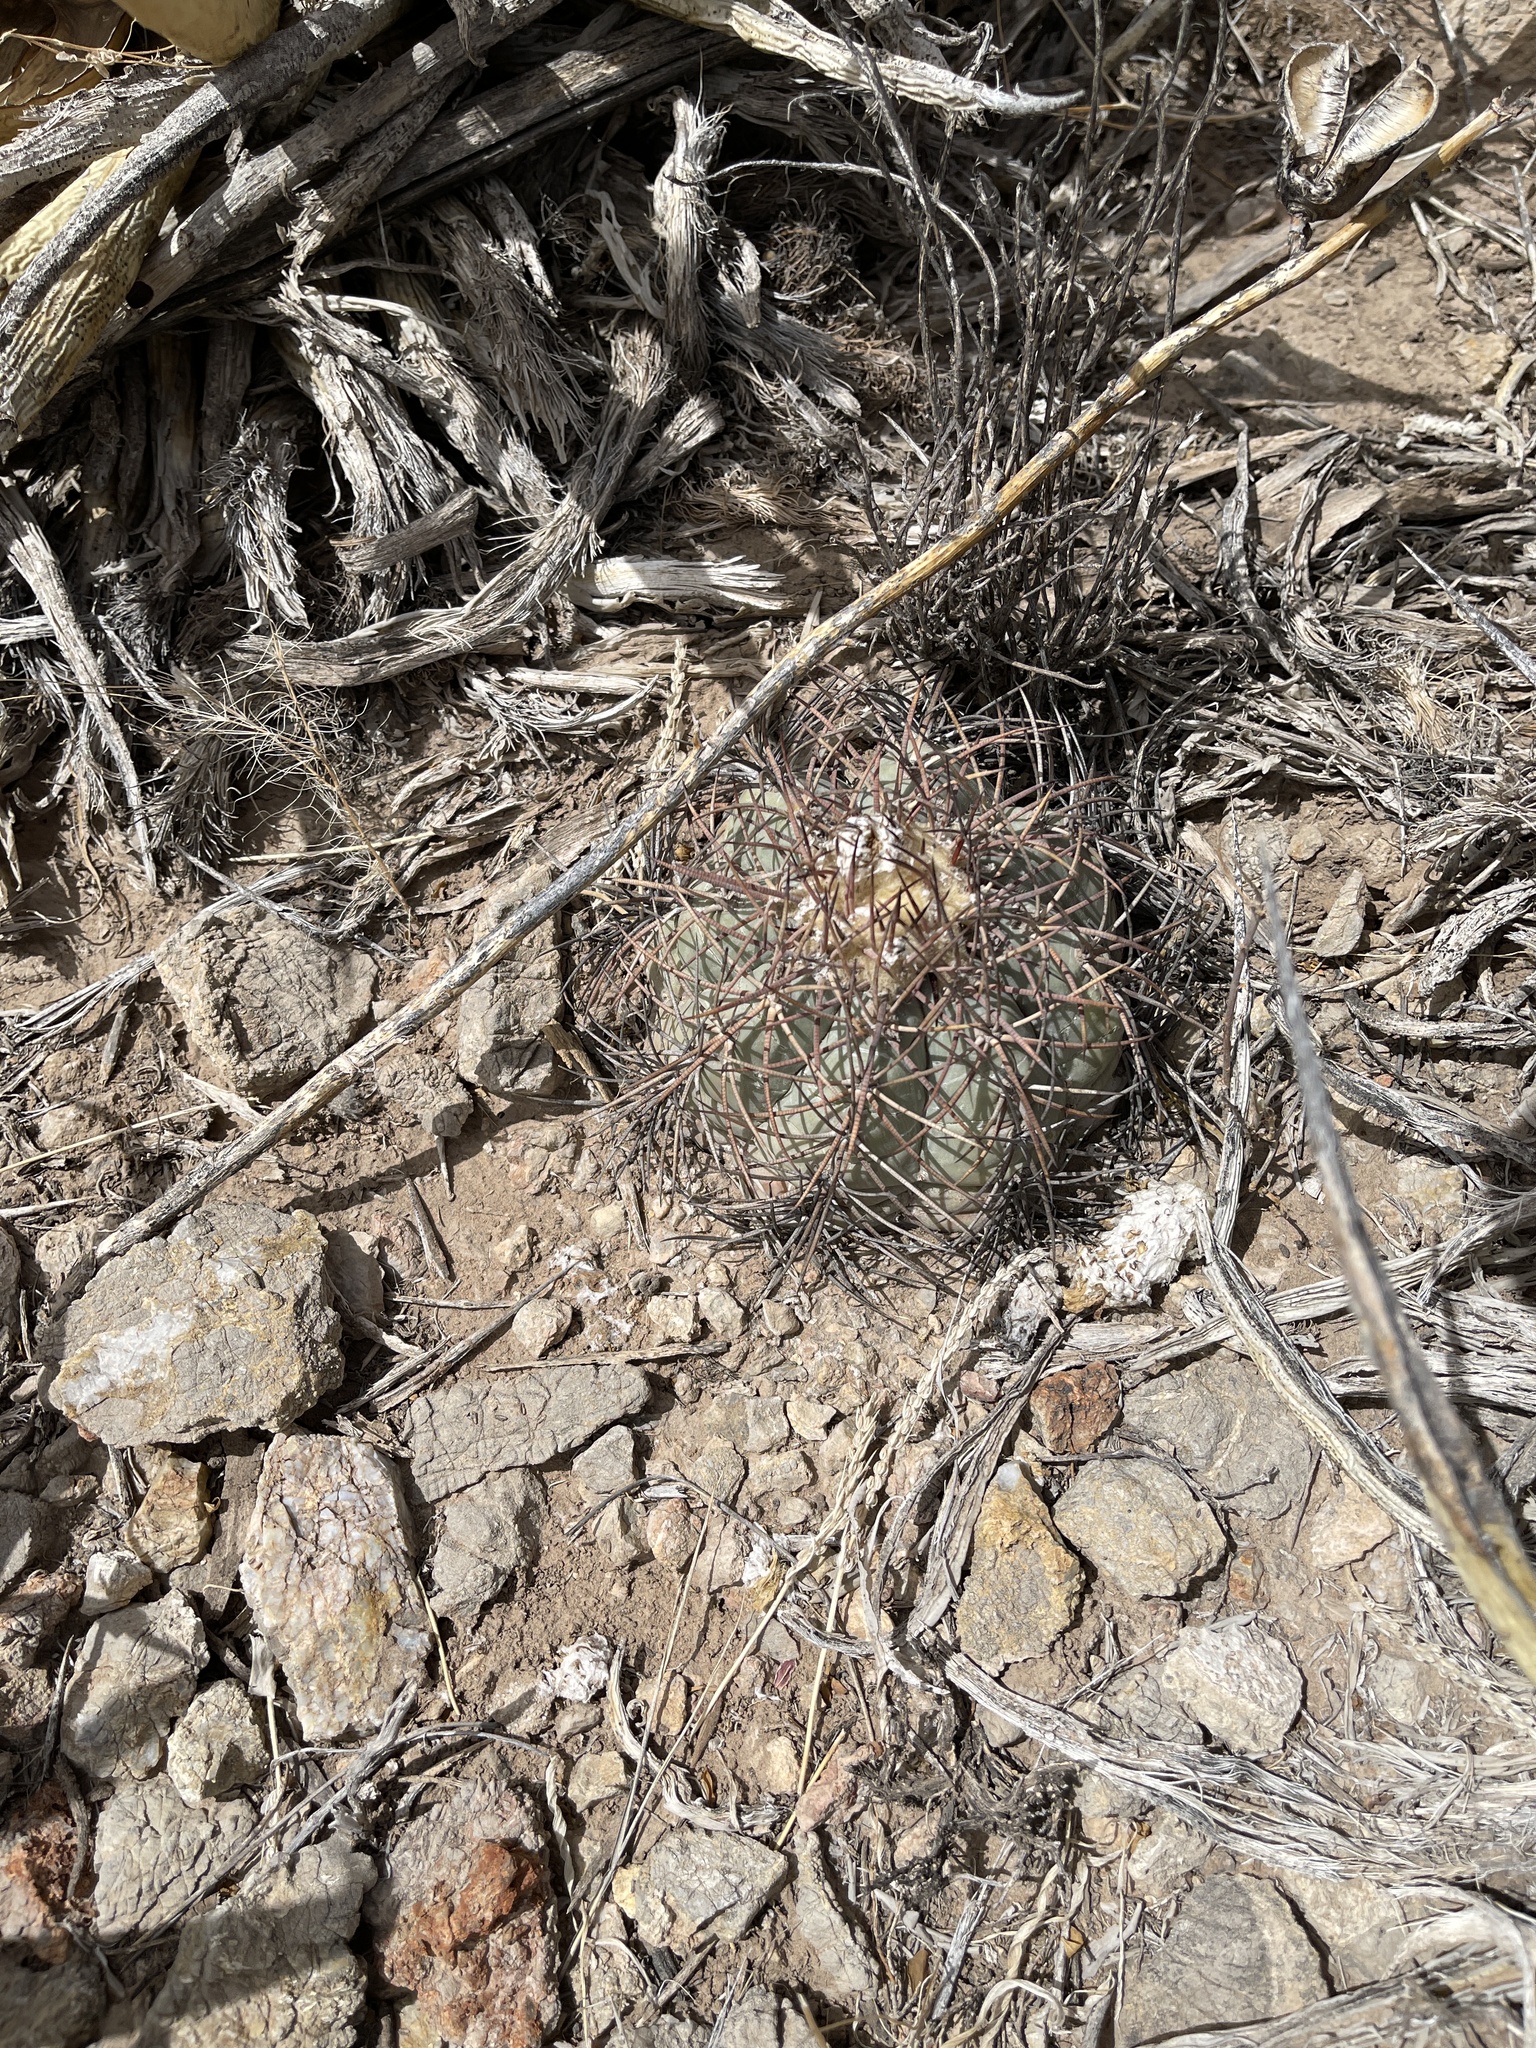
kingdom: Plantae
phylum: Tracheophyta
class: Magnoliopsida
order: Caryophyllales
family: Cactaceae
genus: Echinocactus
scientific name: Echinocactus horizonthalonius
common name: Devilshead
